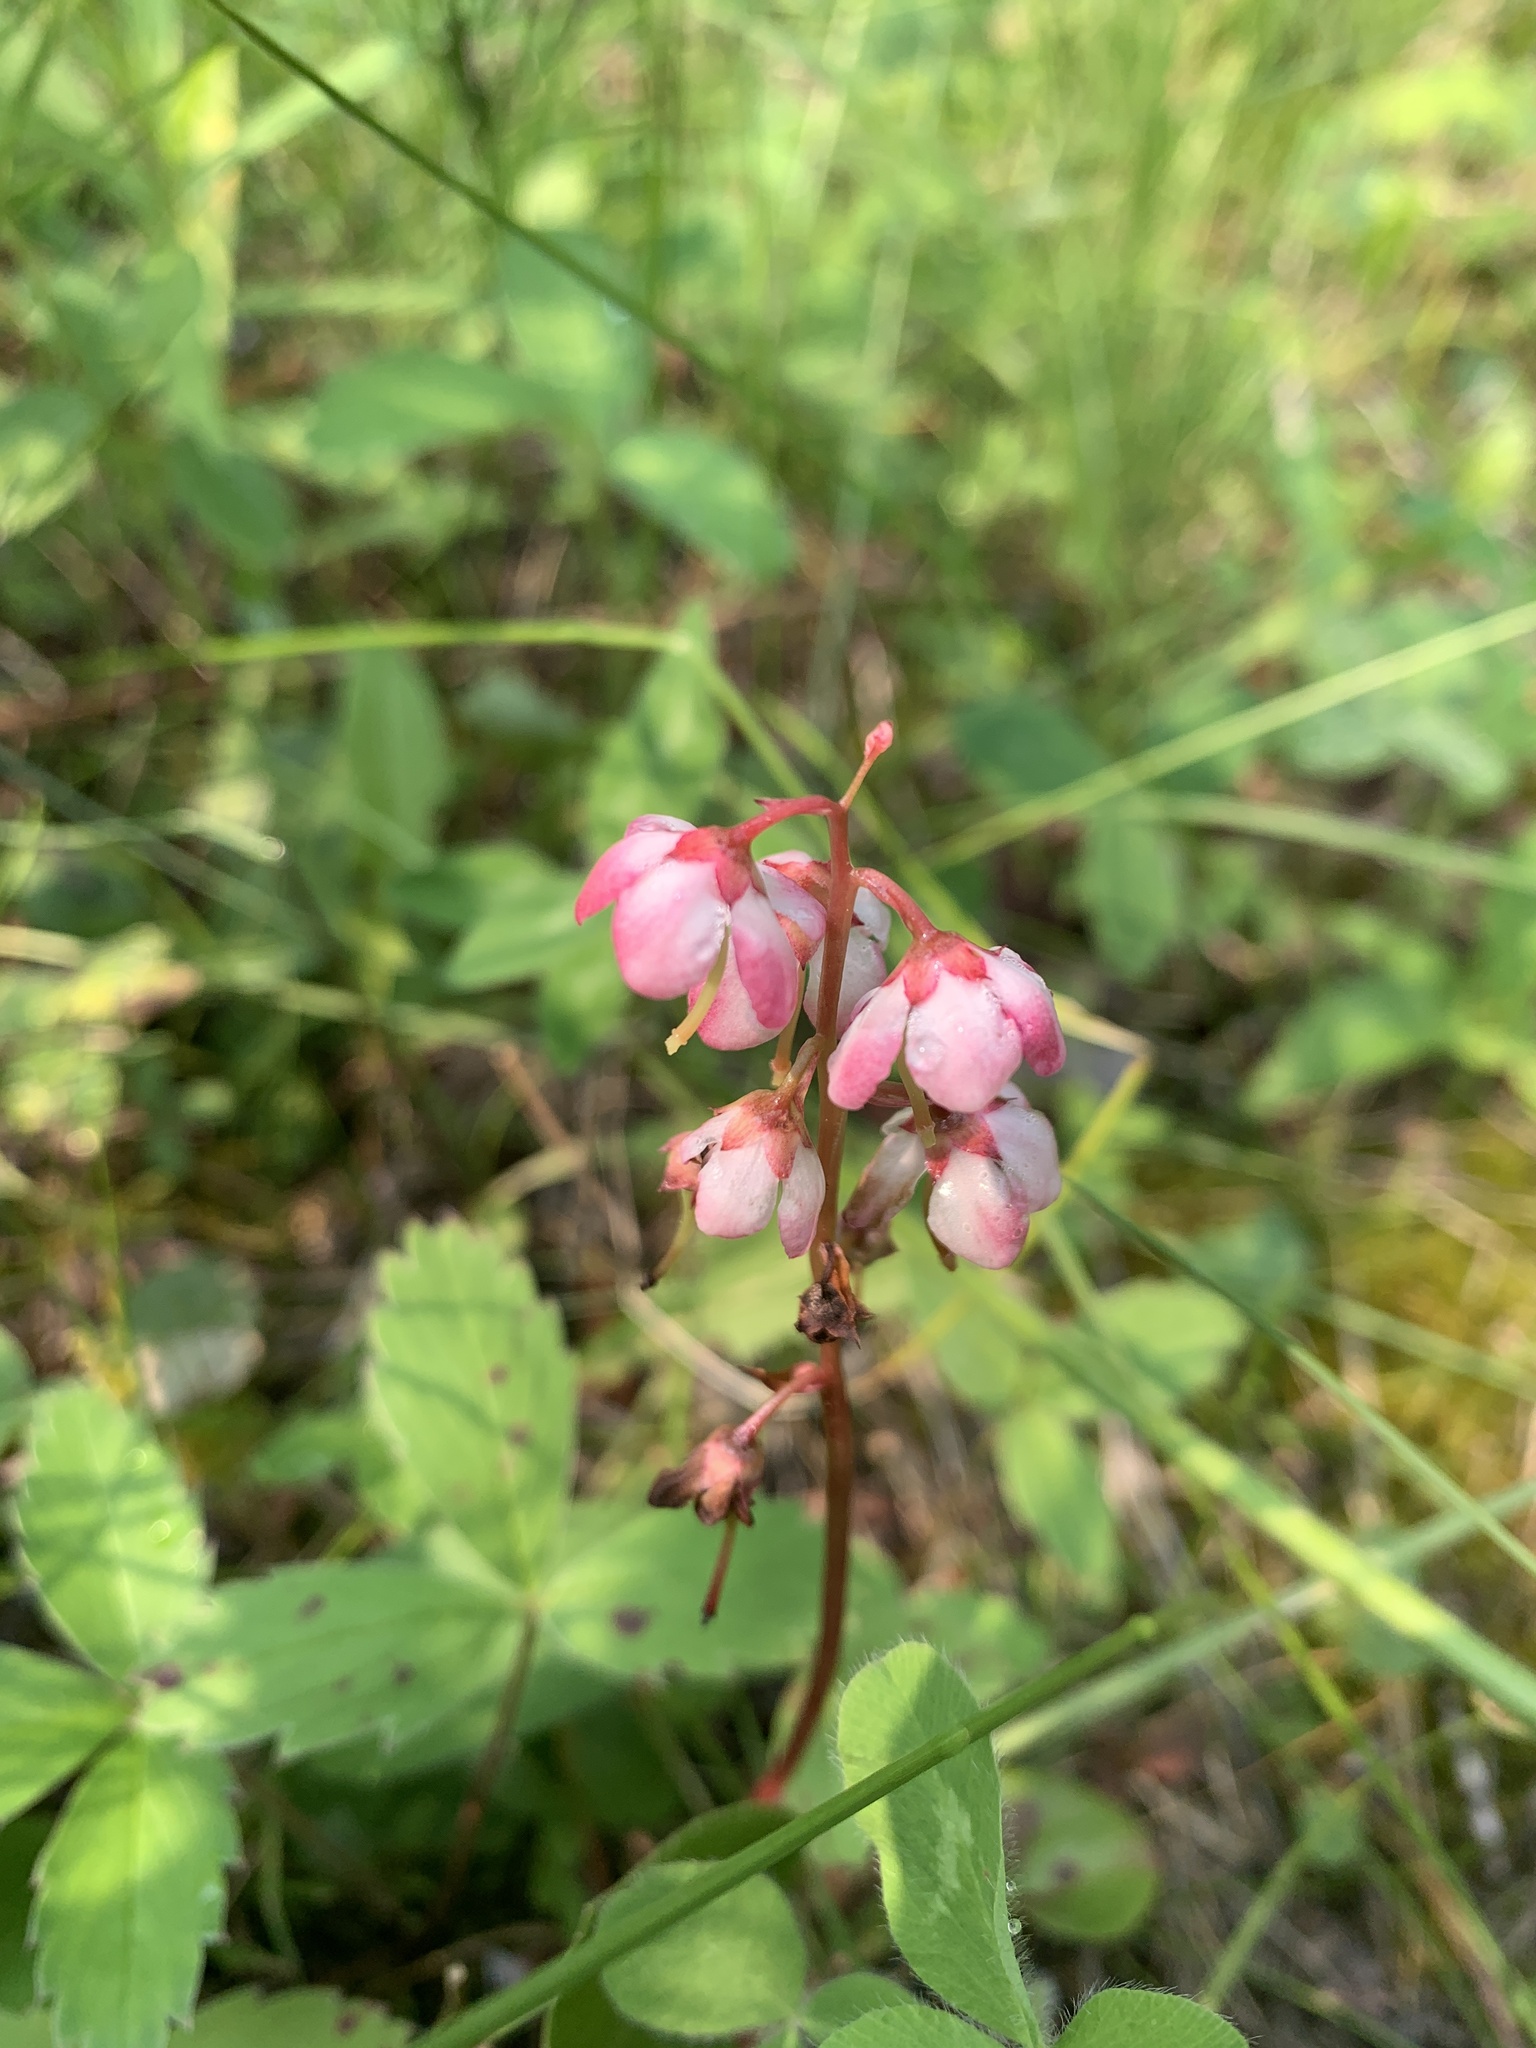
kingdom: Plantae
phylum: Tracheophyta
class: Magnoliopsida
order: Ericales
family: Ericaceae
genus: Pyrola
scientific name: Pyrola asarifolia
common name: Bog wintergreen
